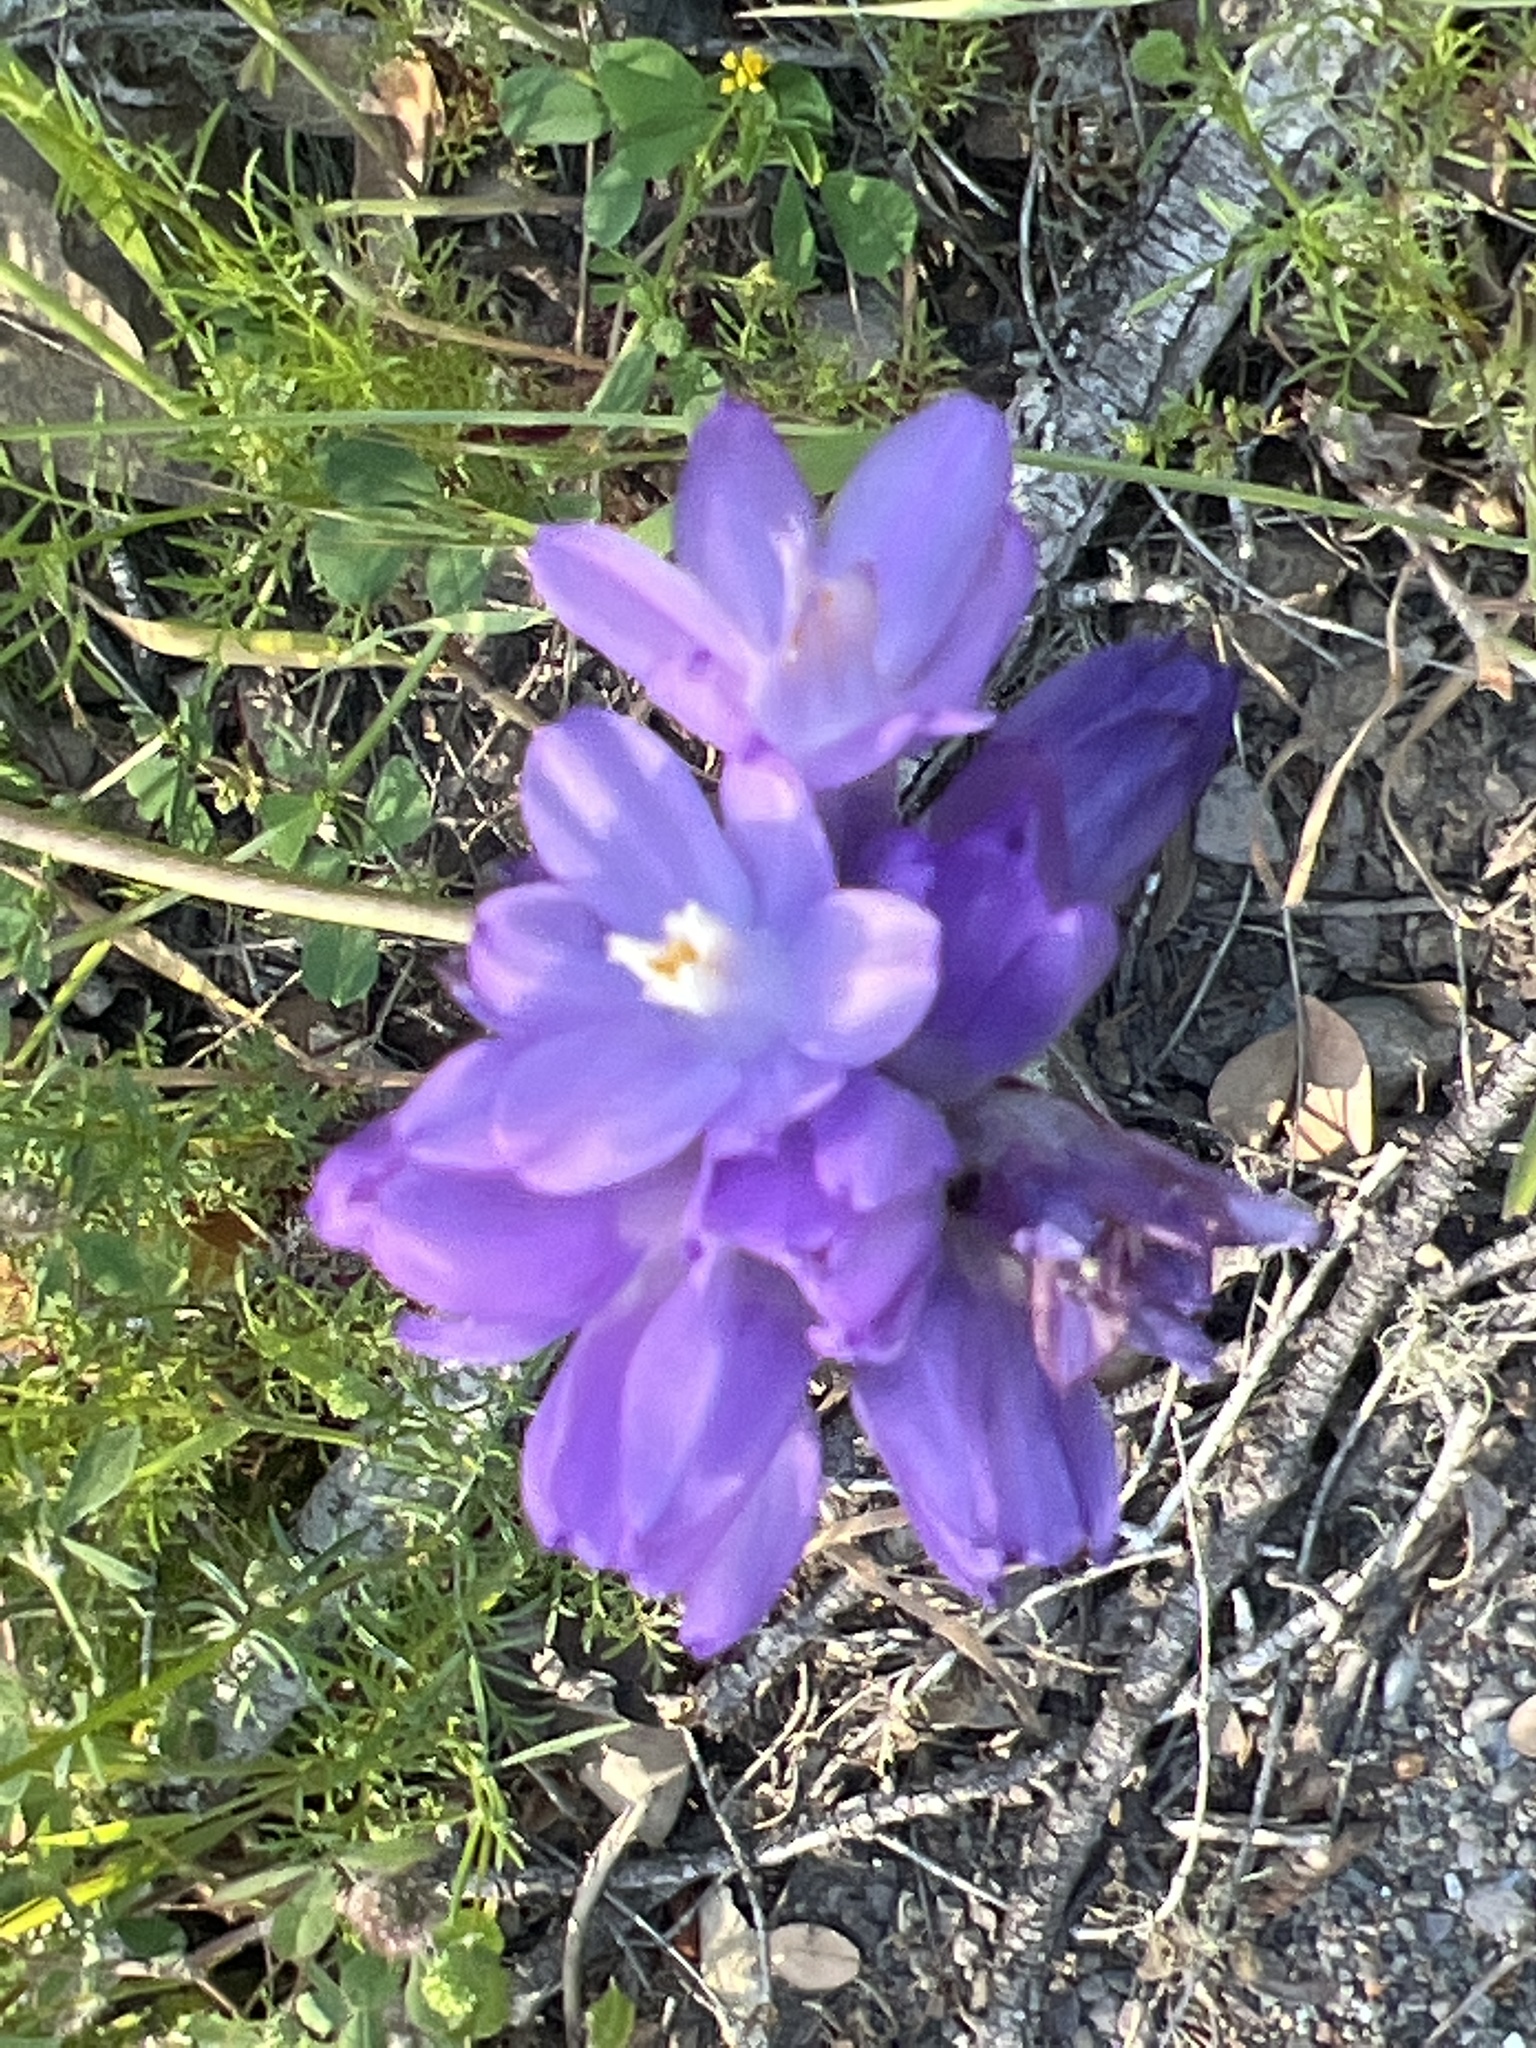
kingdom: Plantae
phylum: Tracheophyta
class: Liliopsida
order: Asparagales
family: Asparagaceae
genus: Dipterostemon
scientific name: Dipterostemon capitatus
